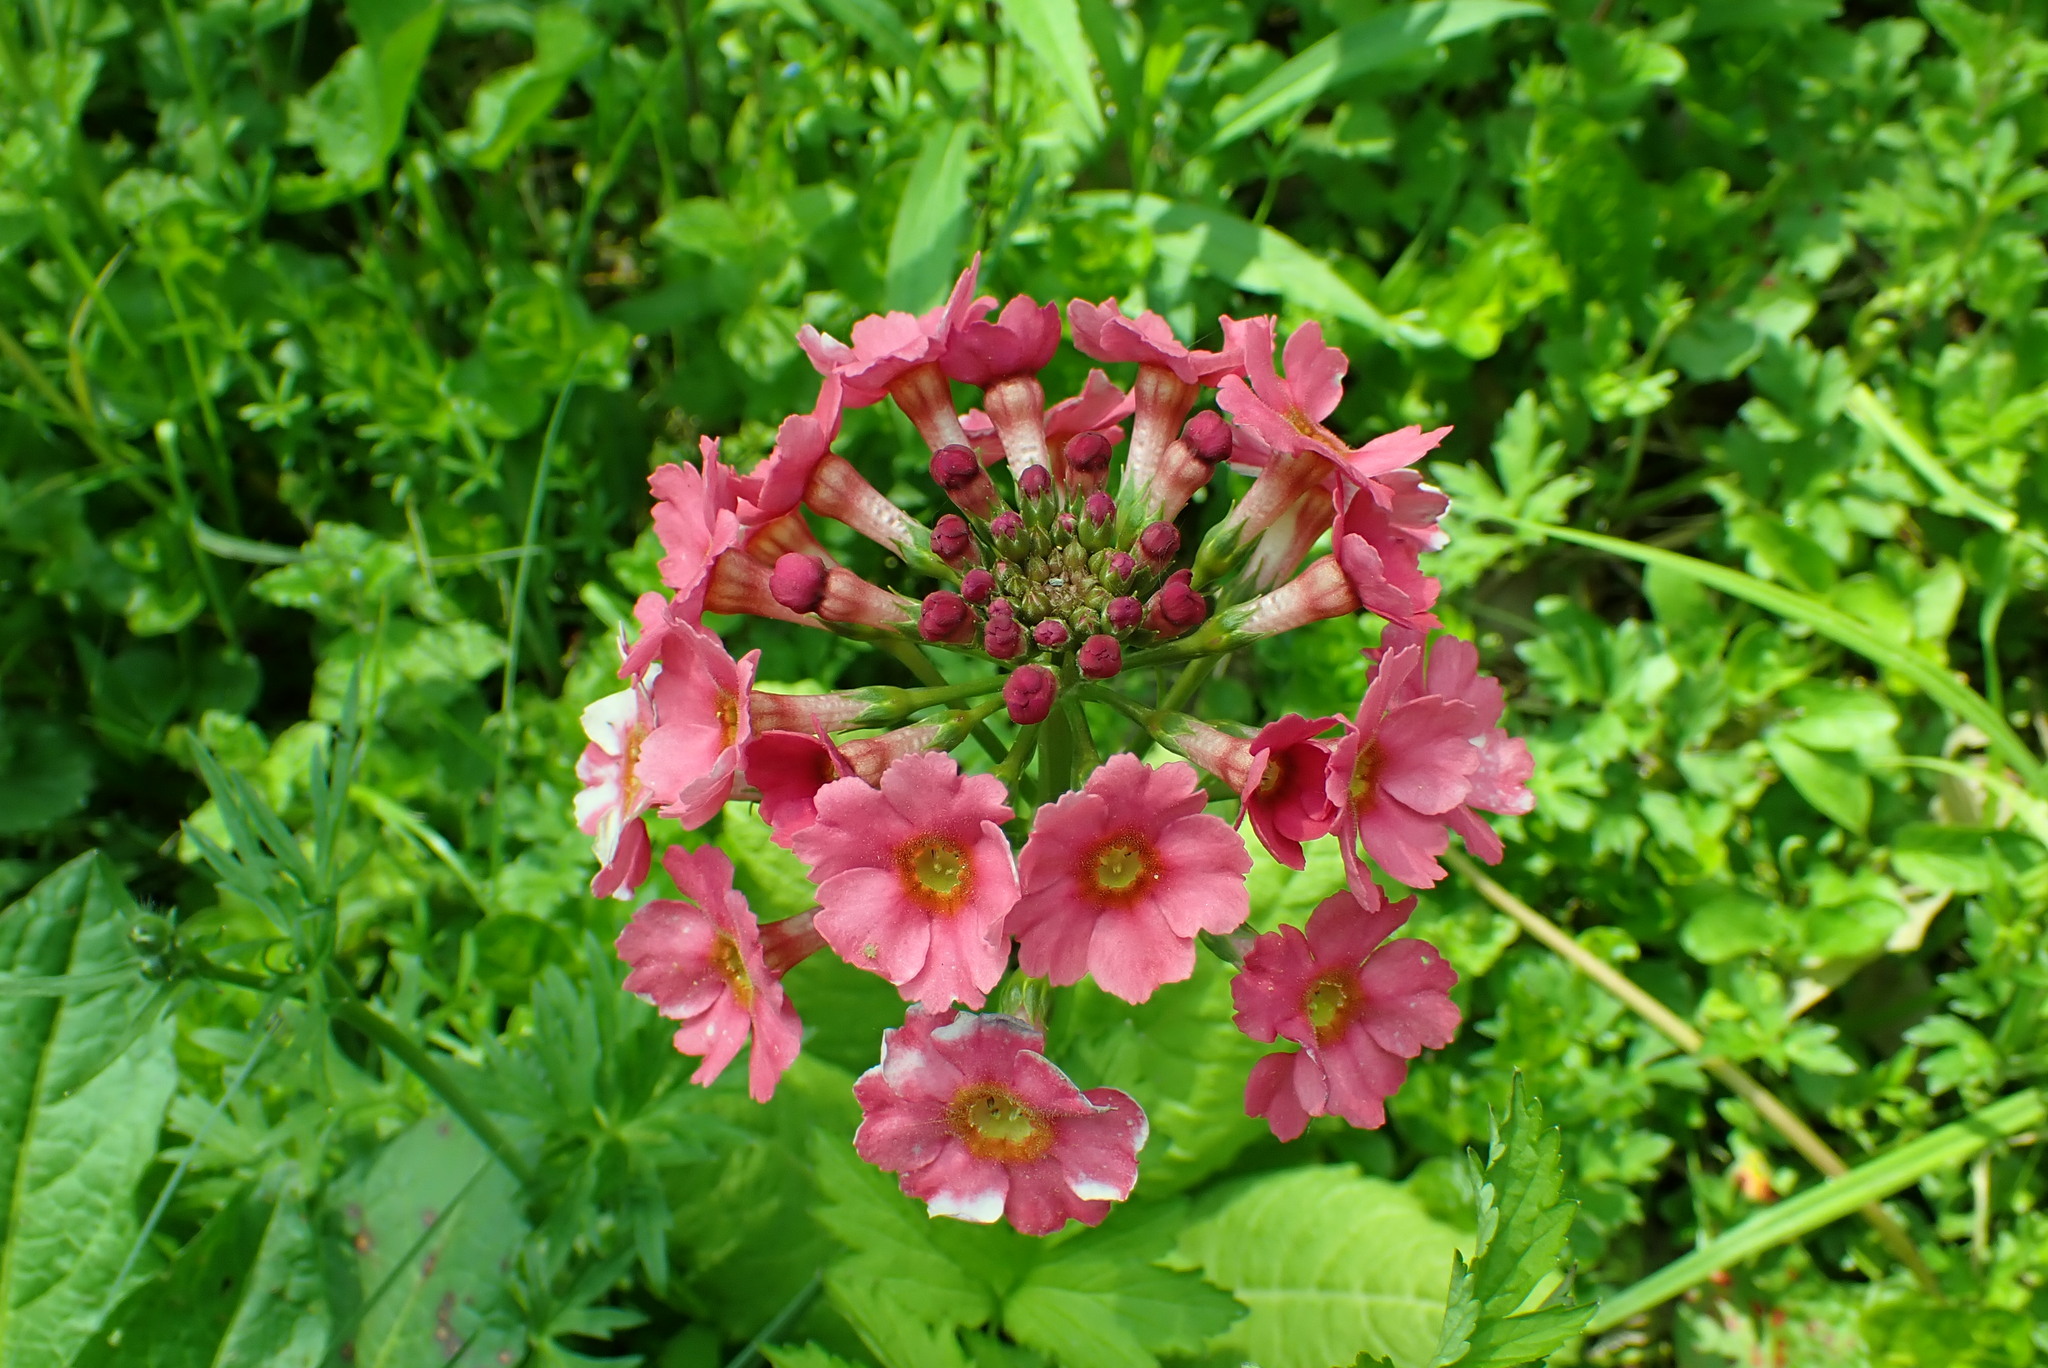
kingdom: Plantae
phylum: Tracheophyta
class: Magnoliopsida
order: Ericales
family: Primulaceae
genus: Primula
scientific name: Primula japonica
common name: Japanese cowslip
